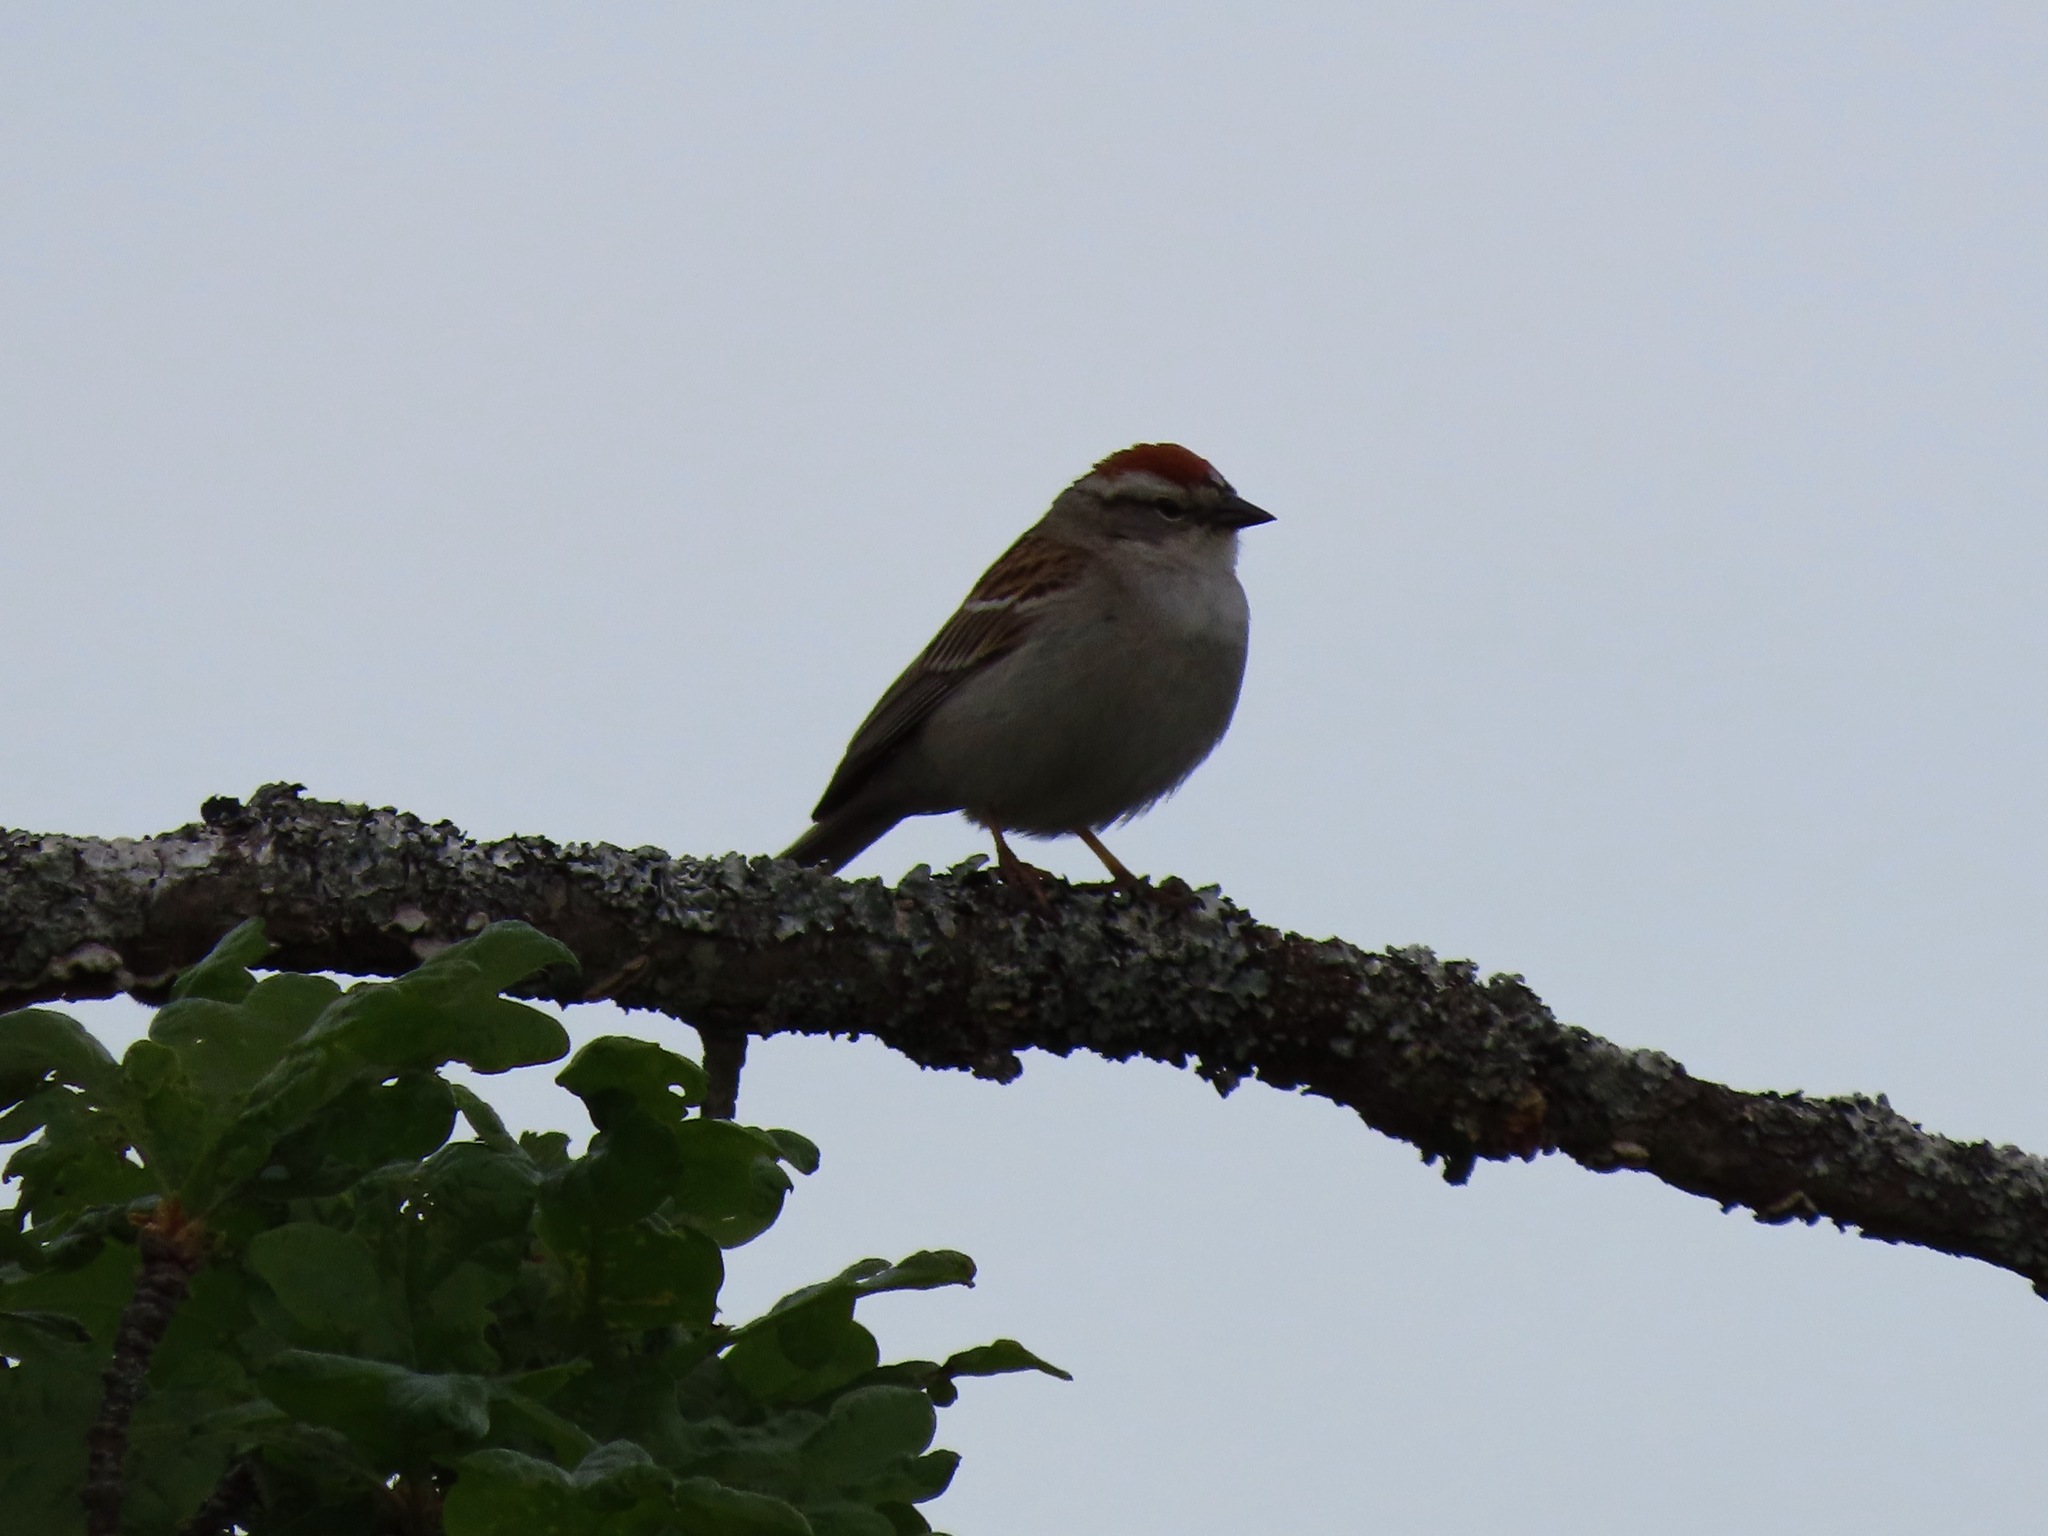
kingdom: Animalia
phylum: Chordata
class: Aves
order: Passeriformes
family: Passerellidae
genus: Spizella
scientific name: Spizella passerina
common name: Chipping sparrow
